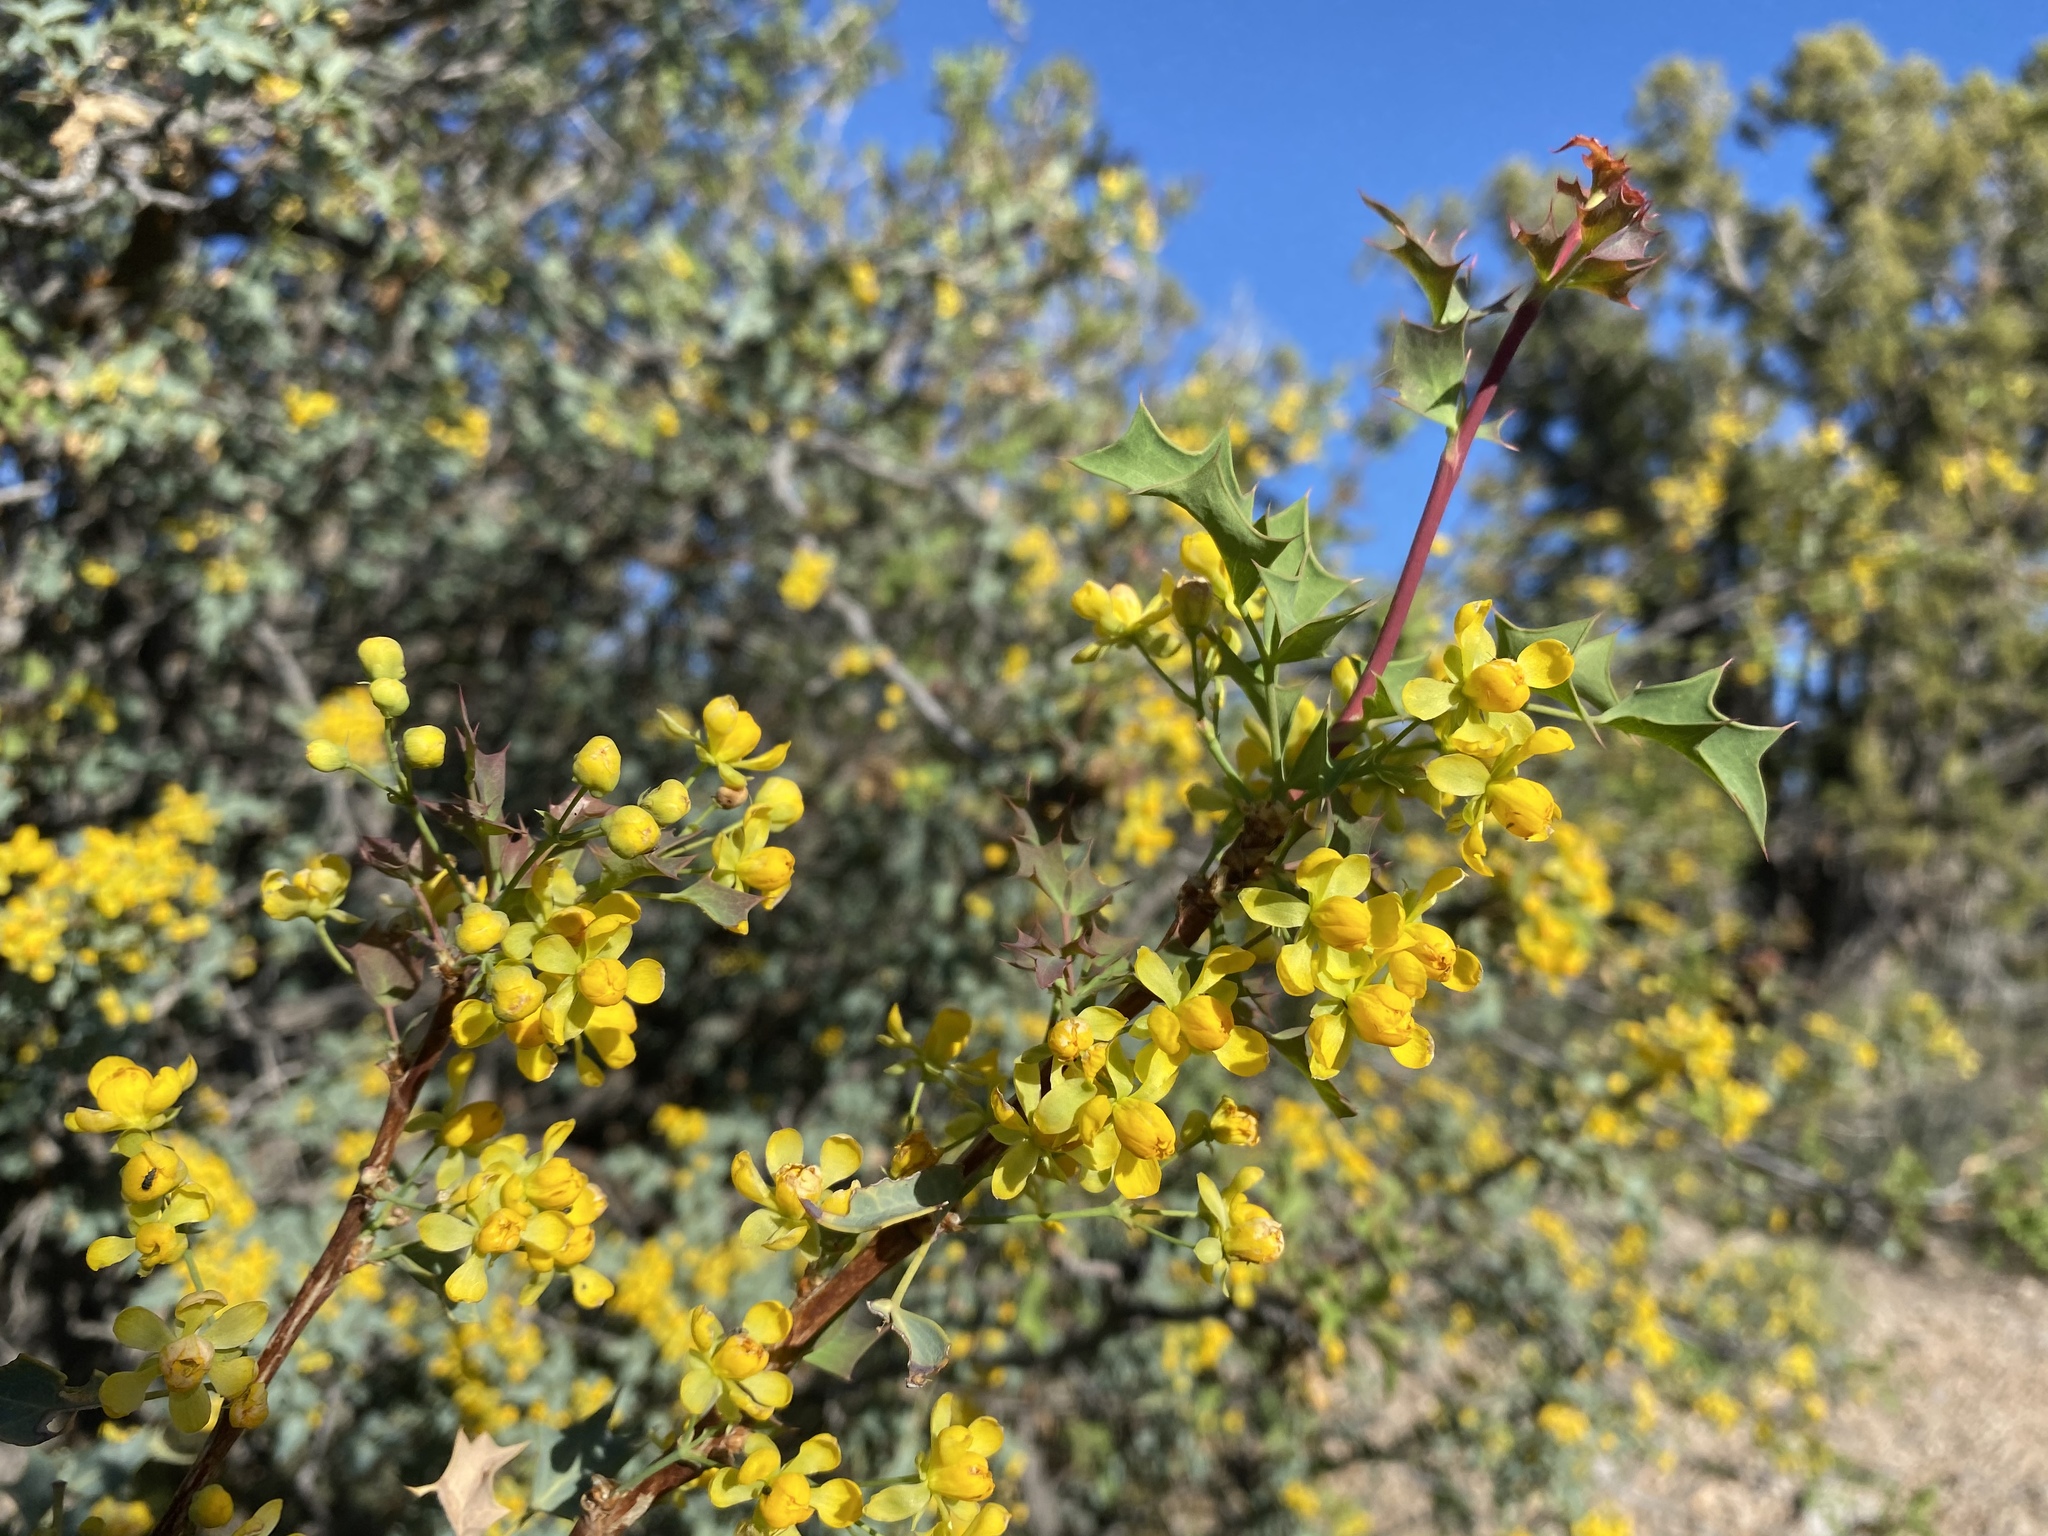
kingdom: Plantae
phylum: Tracheophyta
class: Magnoliopsida
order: Ranunculales
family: Berberidaceae
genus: Alloberberis
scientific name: Alloberberis fremontii
